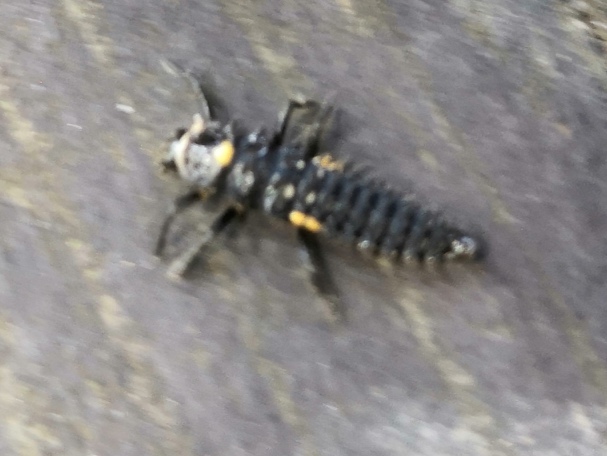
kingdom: Animalia
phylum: Arthropoda
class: Insecta
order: Coleoptera
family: Coccinellidae
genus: Anatis
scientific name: Anatis ocellata
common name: Eyed ladybird
